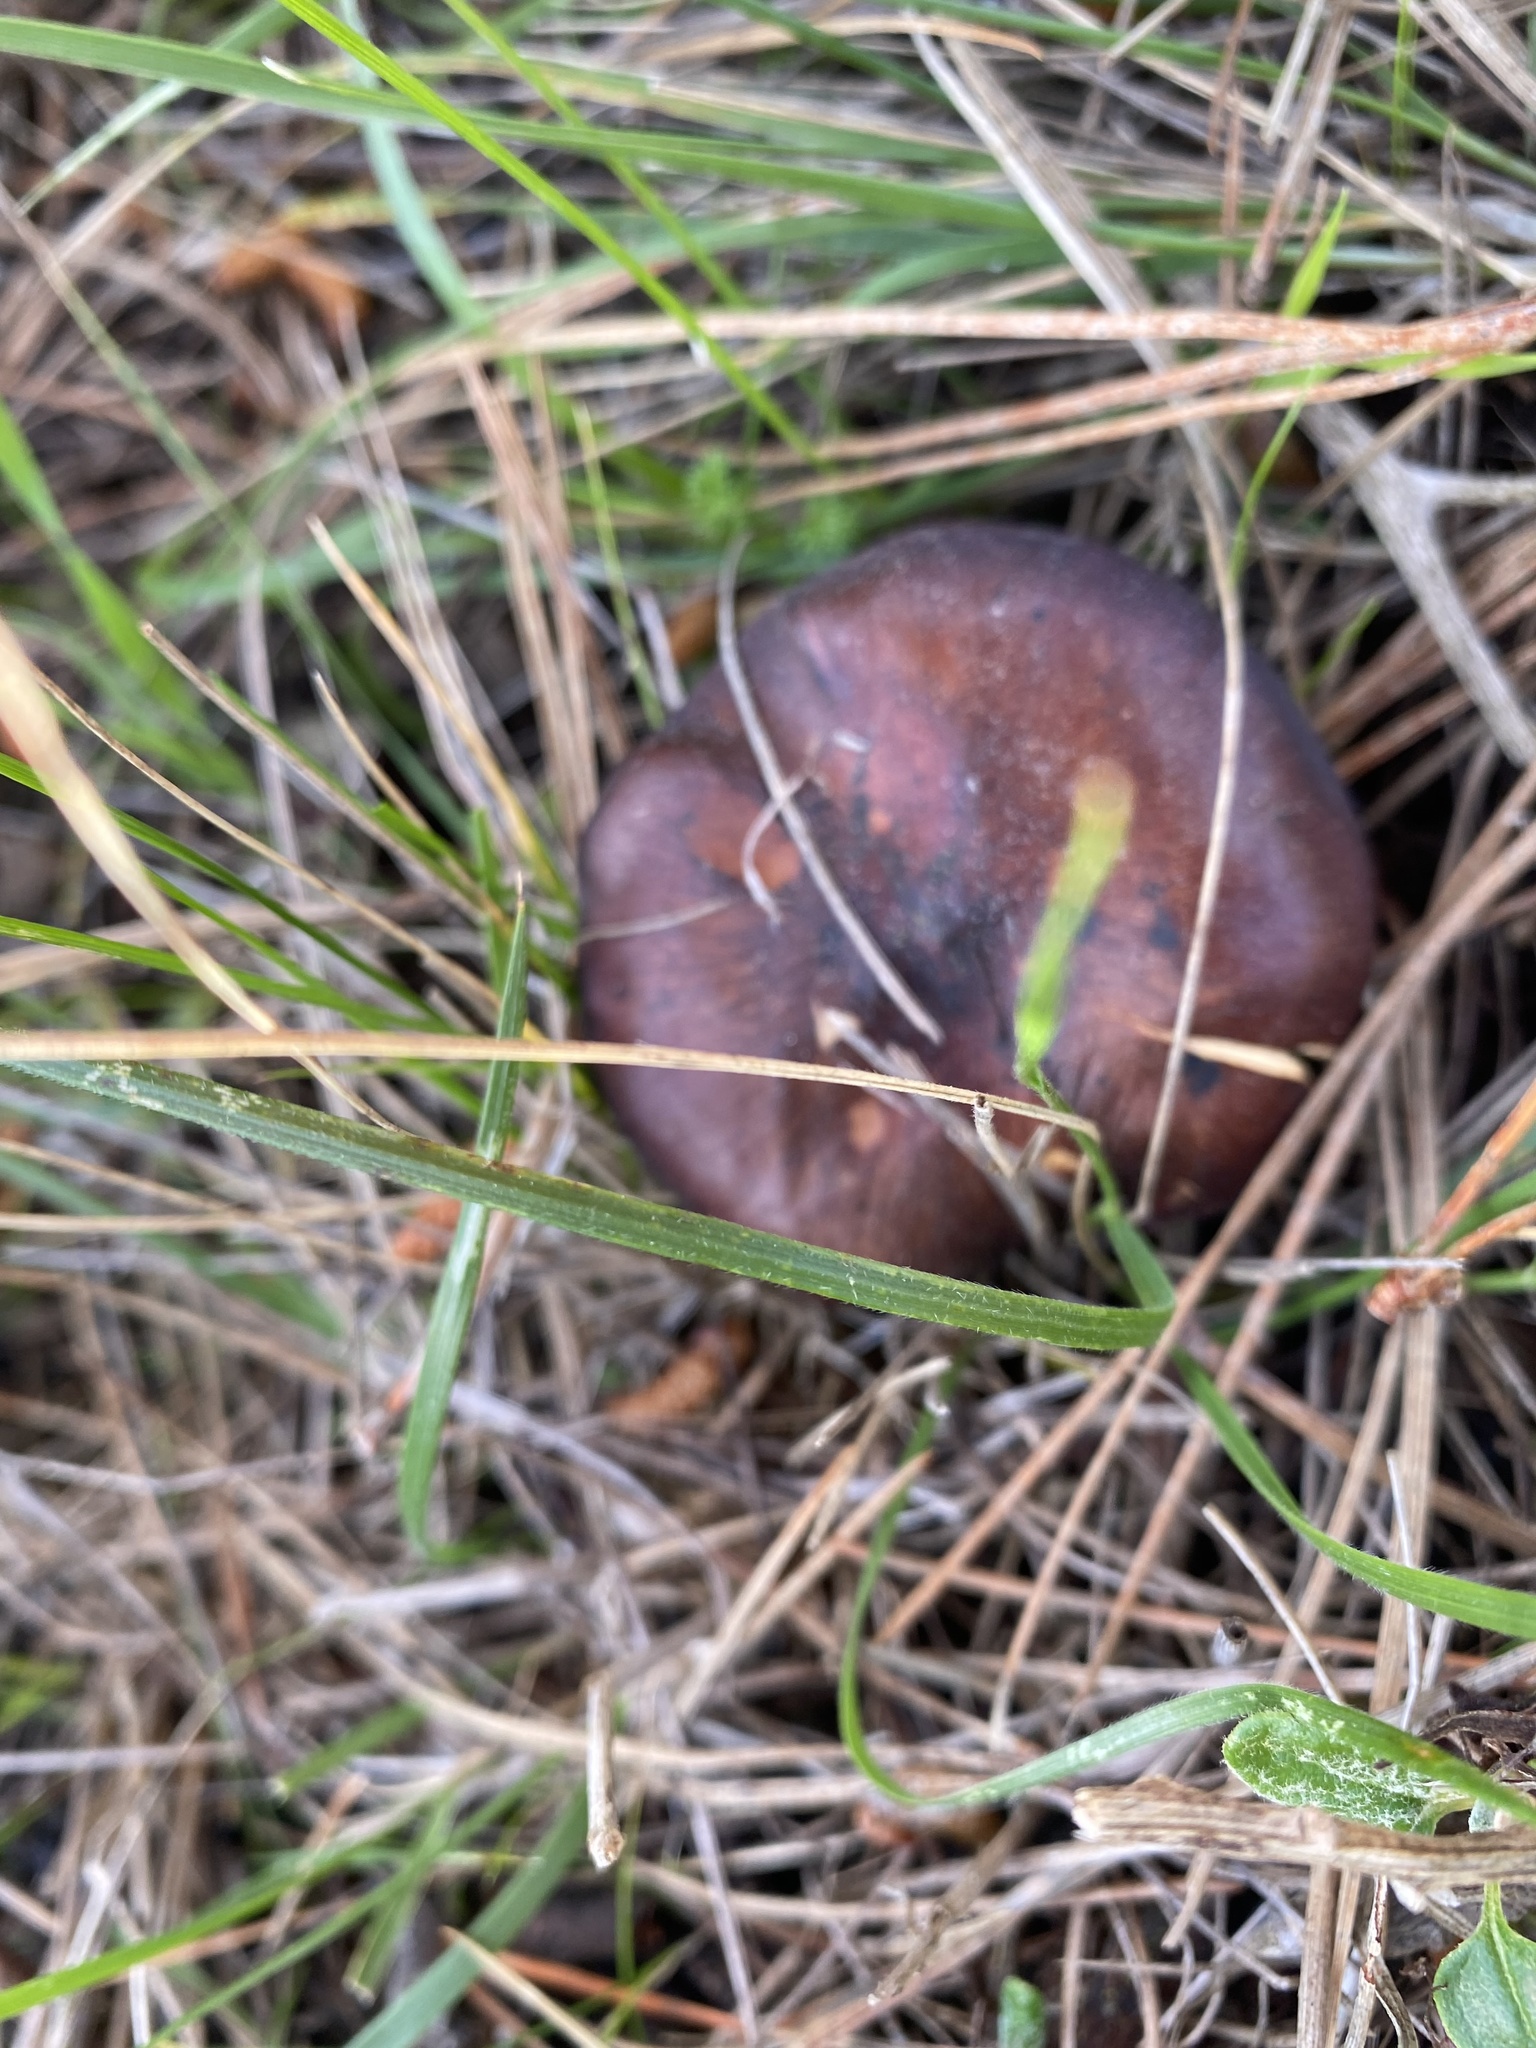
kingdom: Fungi
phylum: Basidiomycota
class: Agaricomycetes
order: Boletales
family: Gomphidiaceae
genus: Chroogomphus
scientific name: Chroogomphus vinicolor
